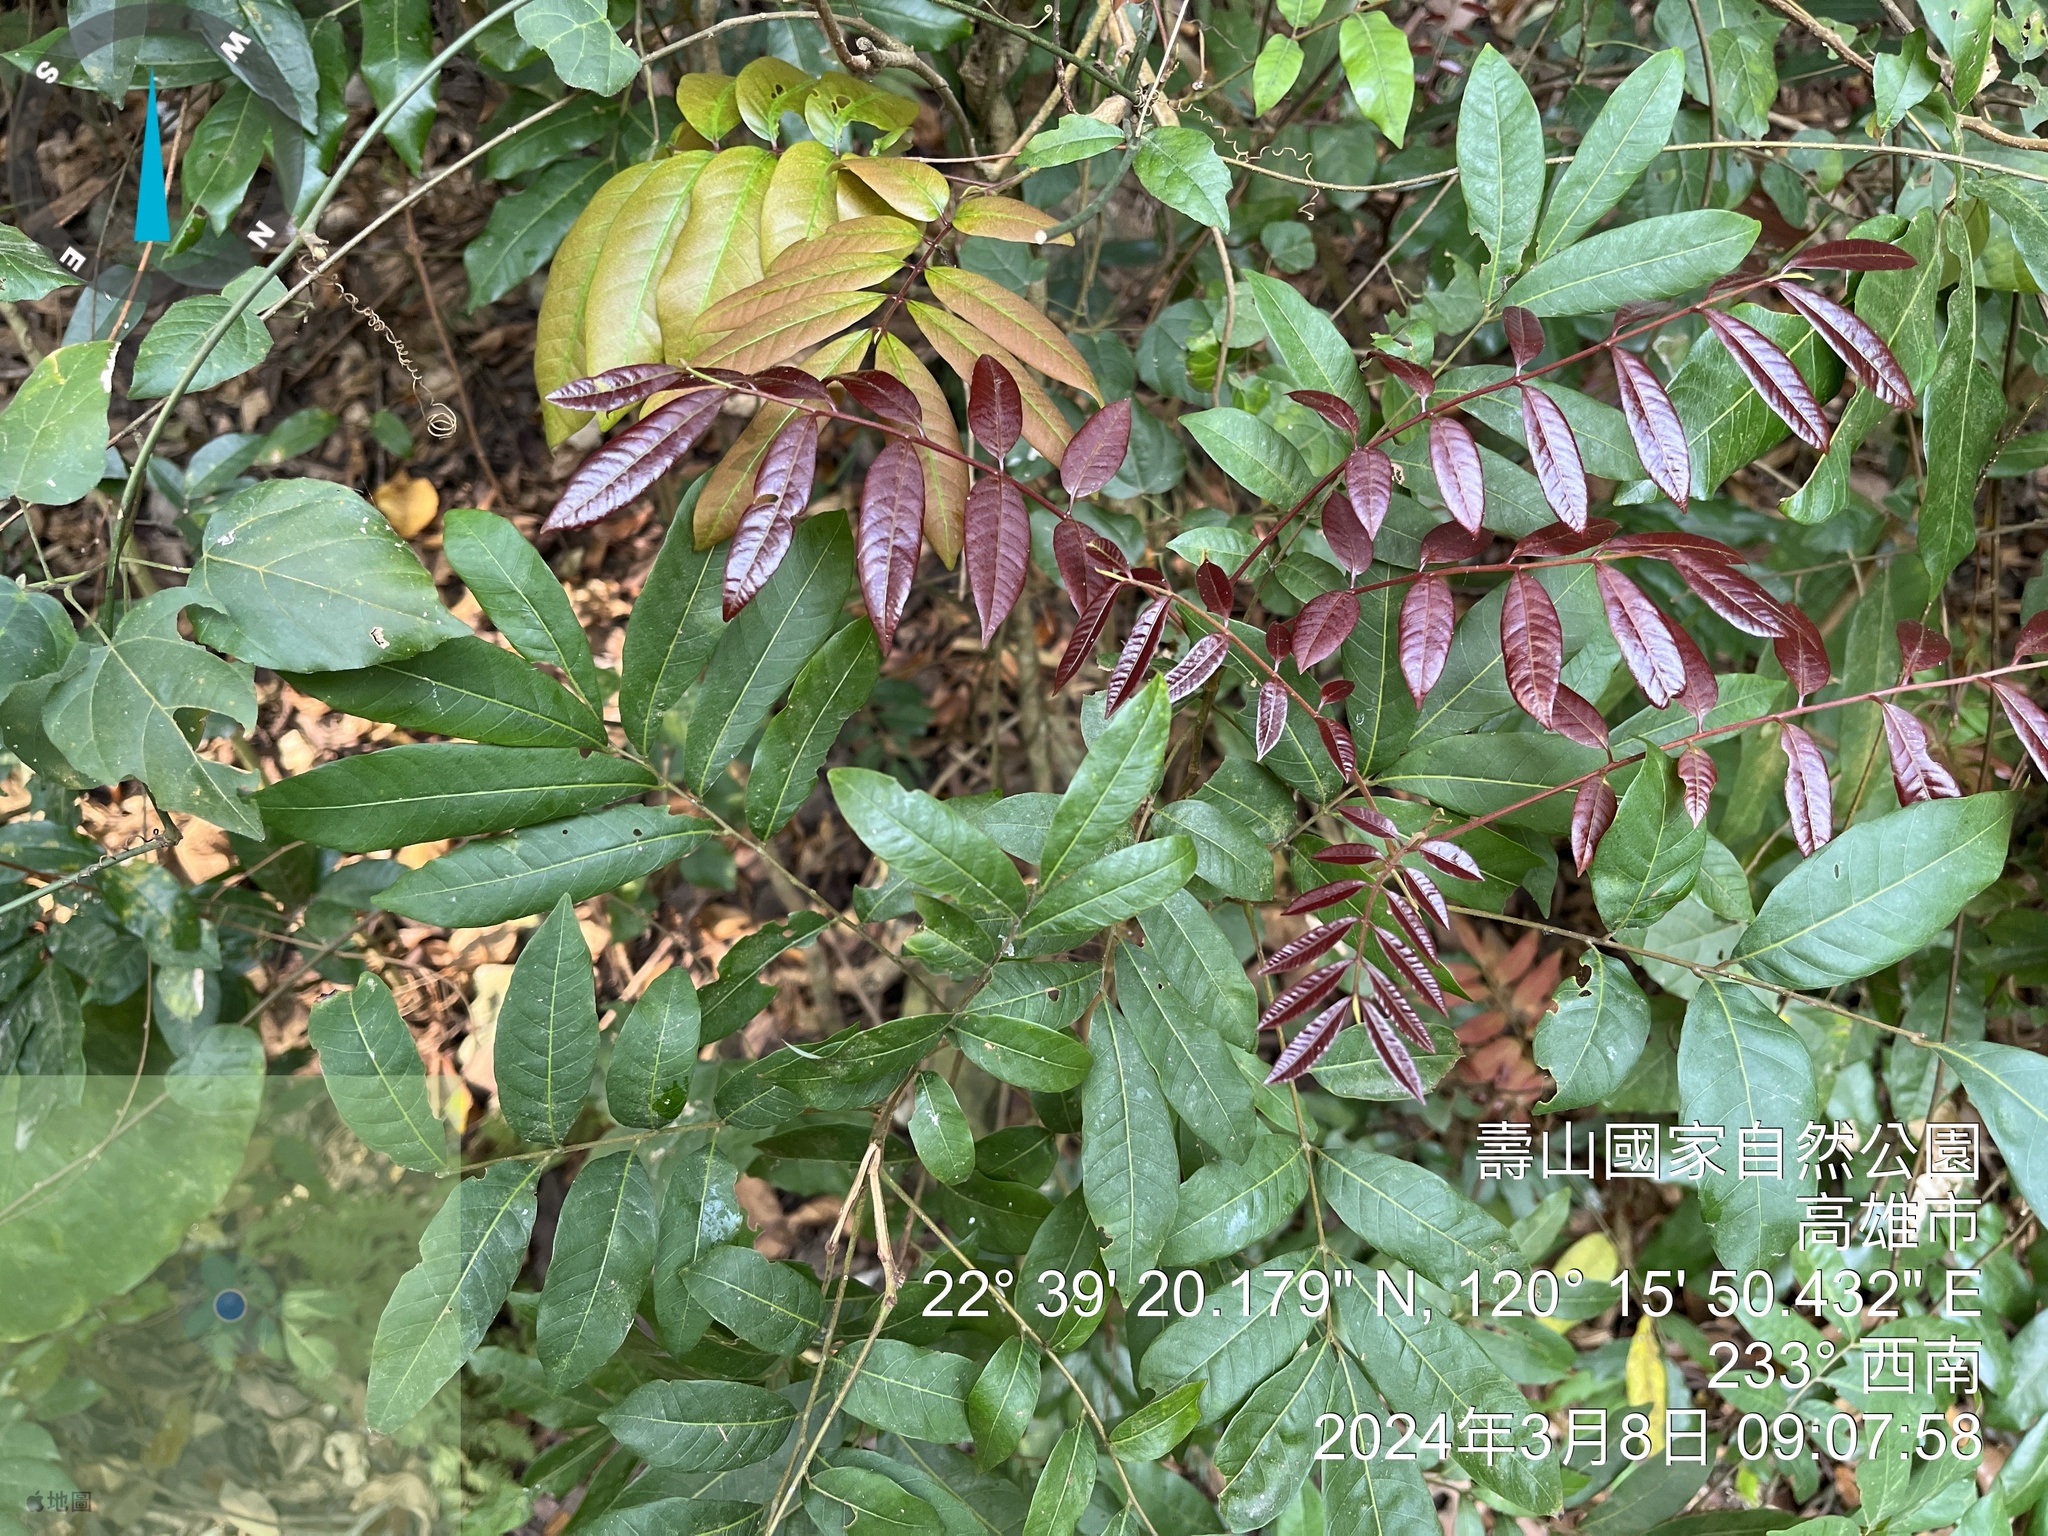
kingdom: Plantae
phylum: Tracheophyta
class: Magnoliopsida
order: Sapindales
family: Sapindaceae
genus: Dimocarpus
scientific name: Dimocarpus longan
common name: Longan
